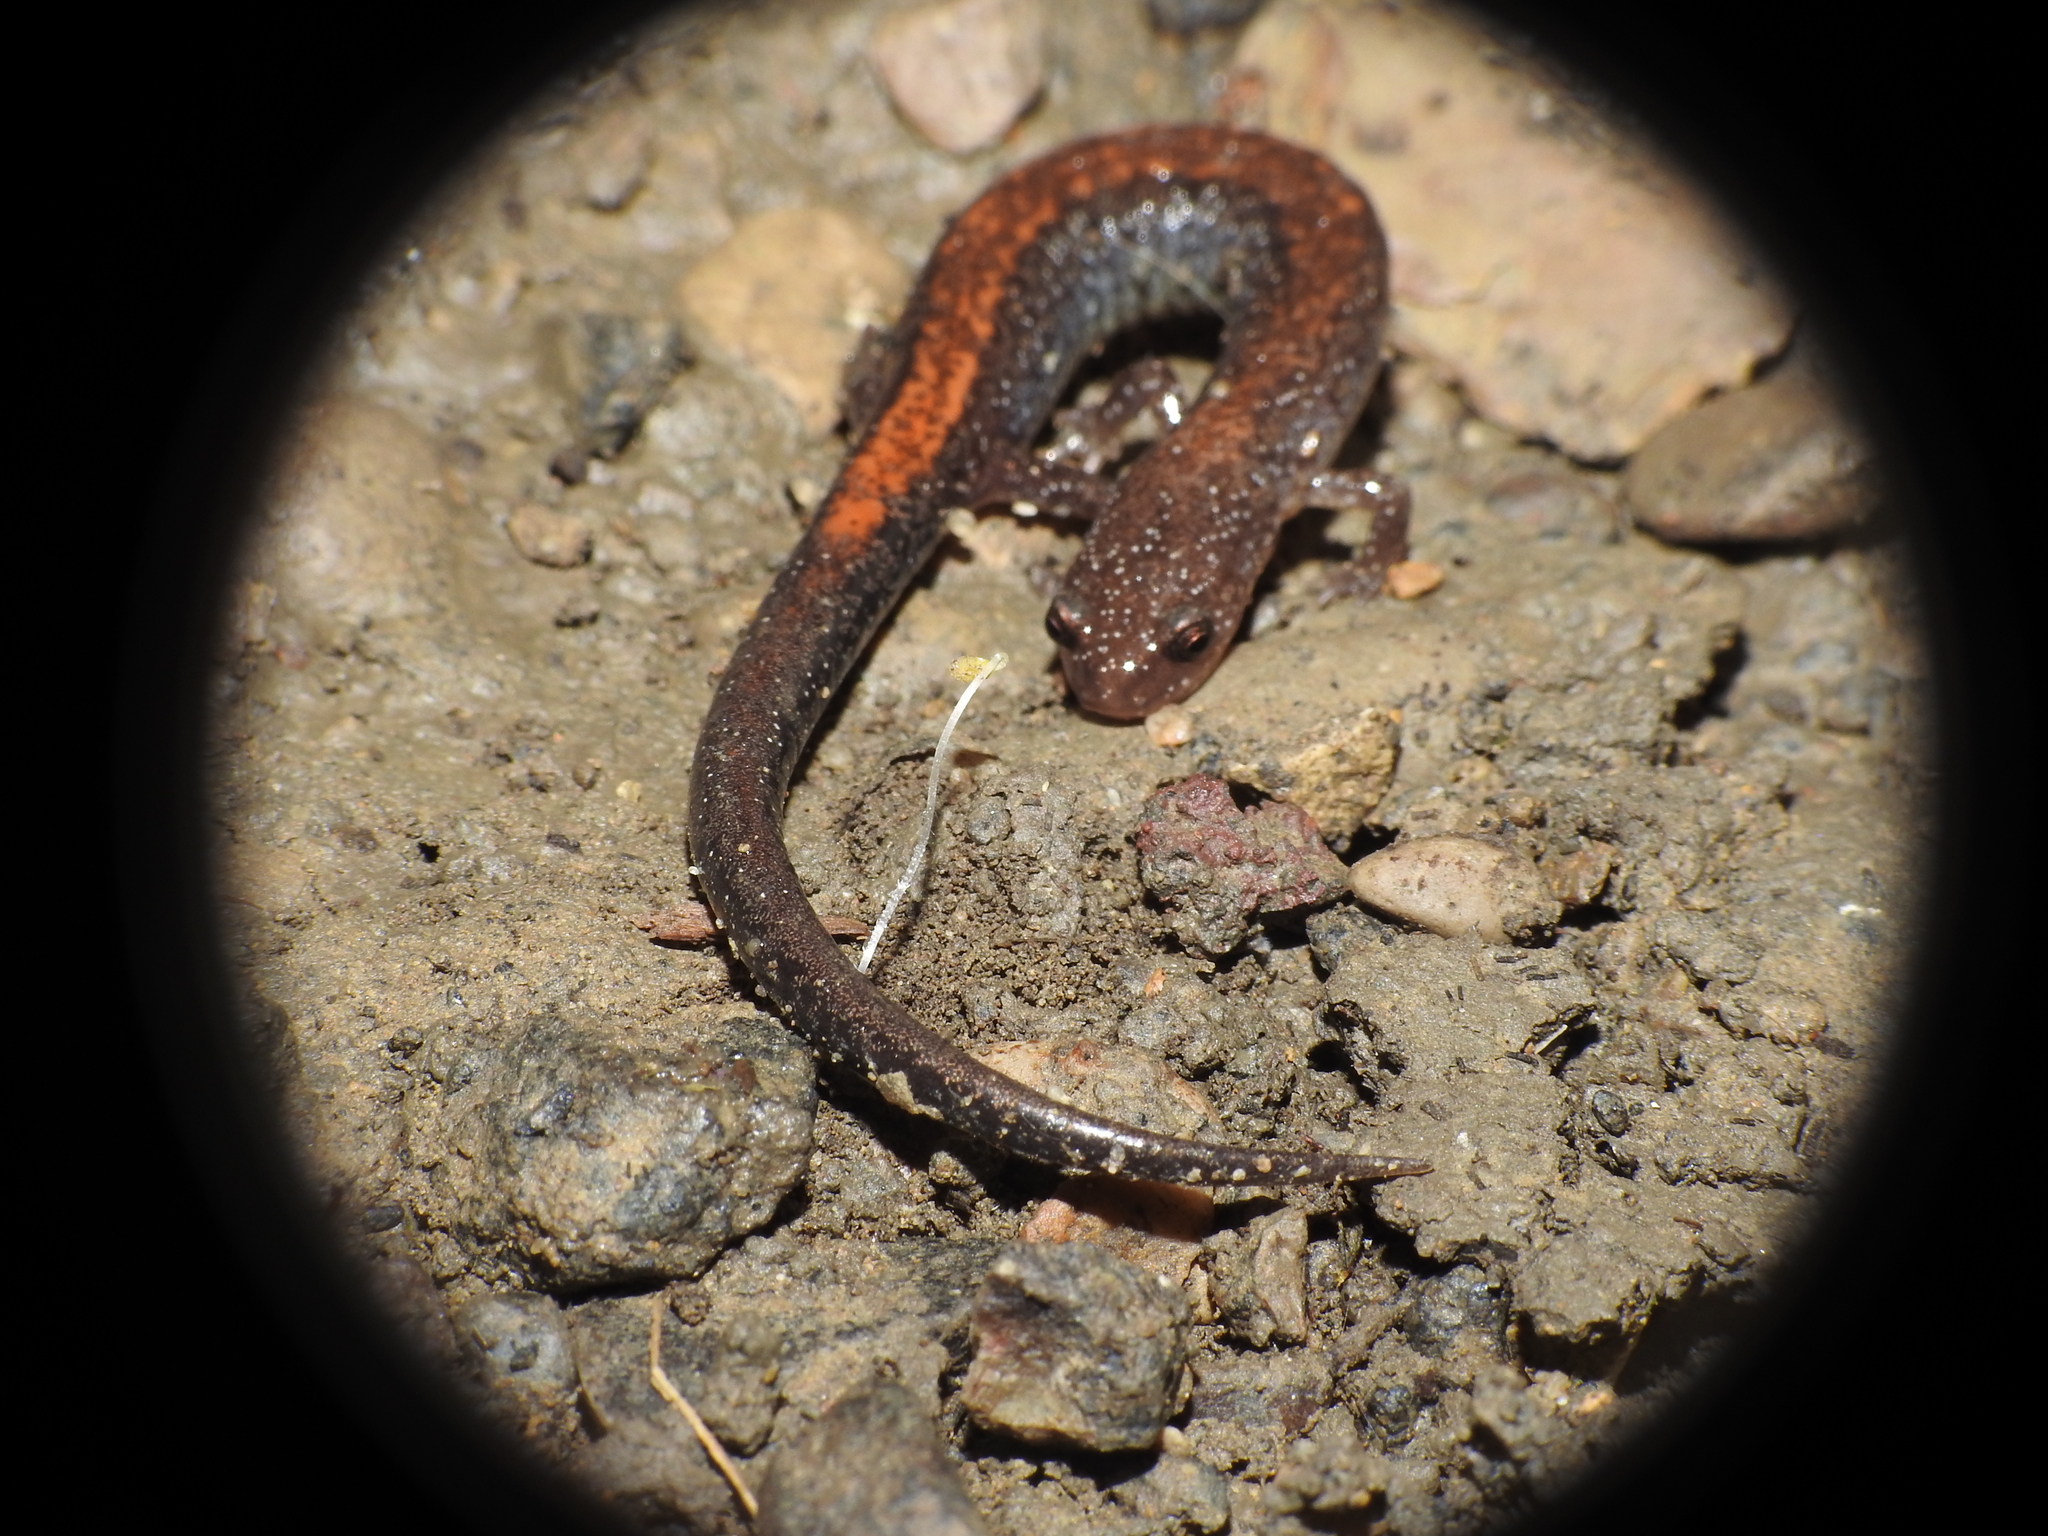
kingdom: Animalia
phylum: Chordata
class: Amphibia
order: Caudata
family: Plethodontidae
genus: Plethodon
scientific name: Plethodon cinereus
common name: Redback salamander
